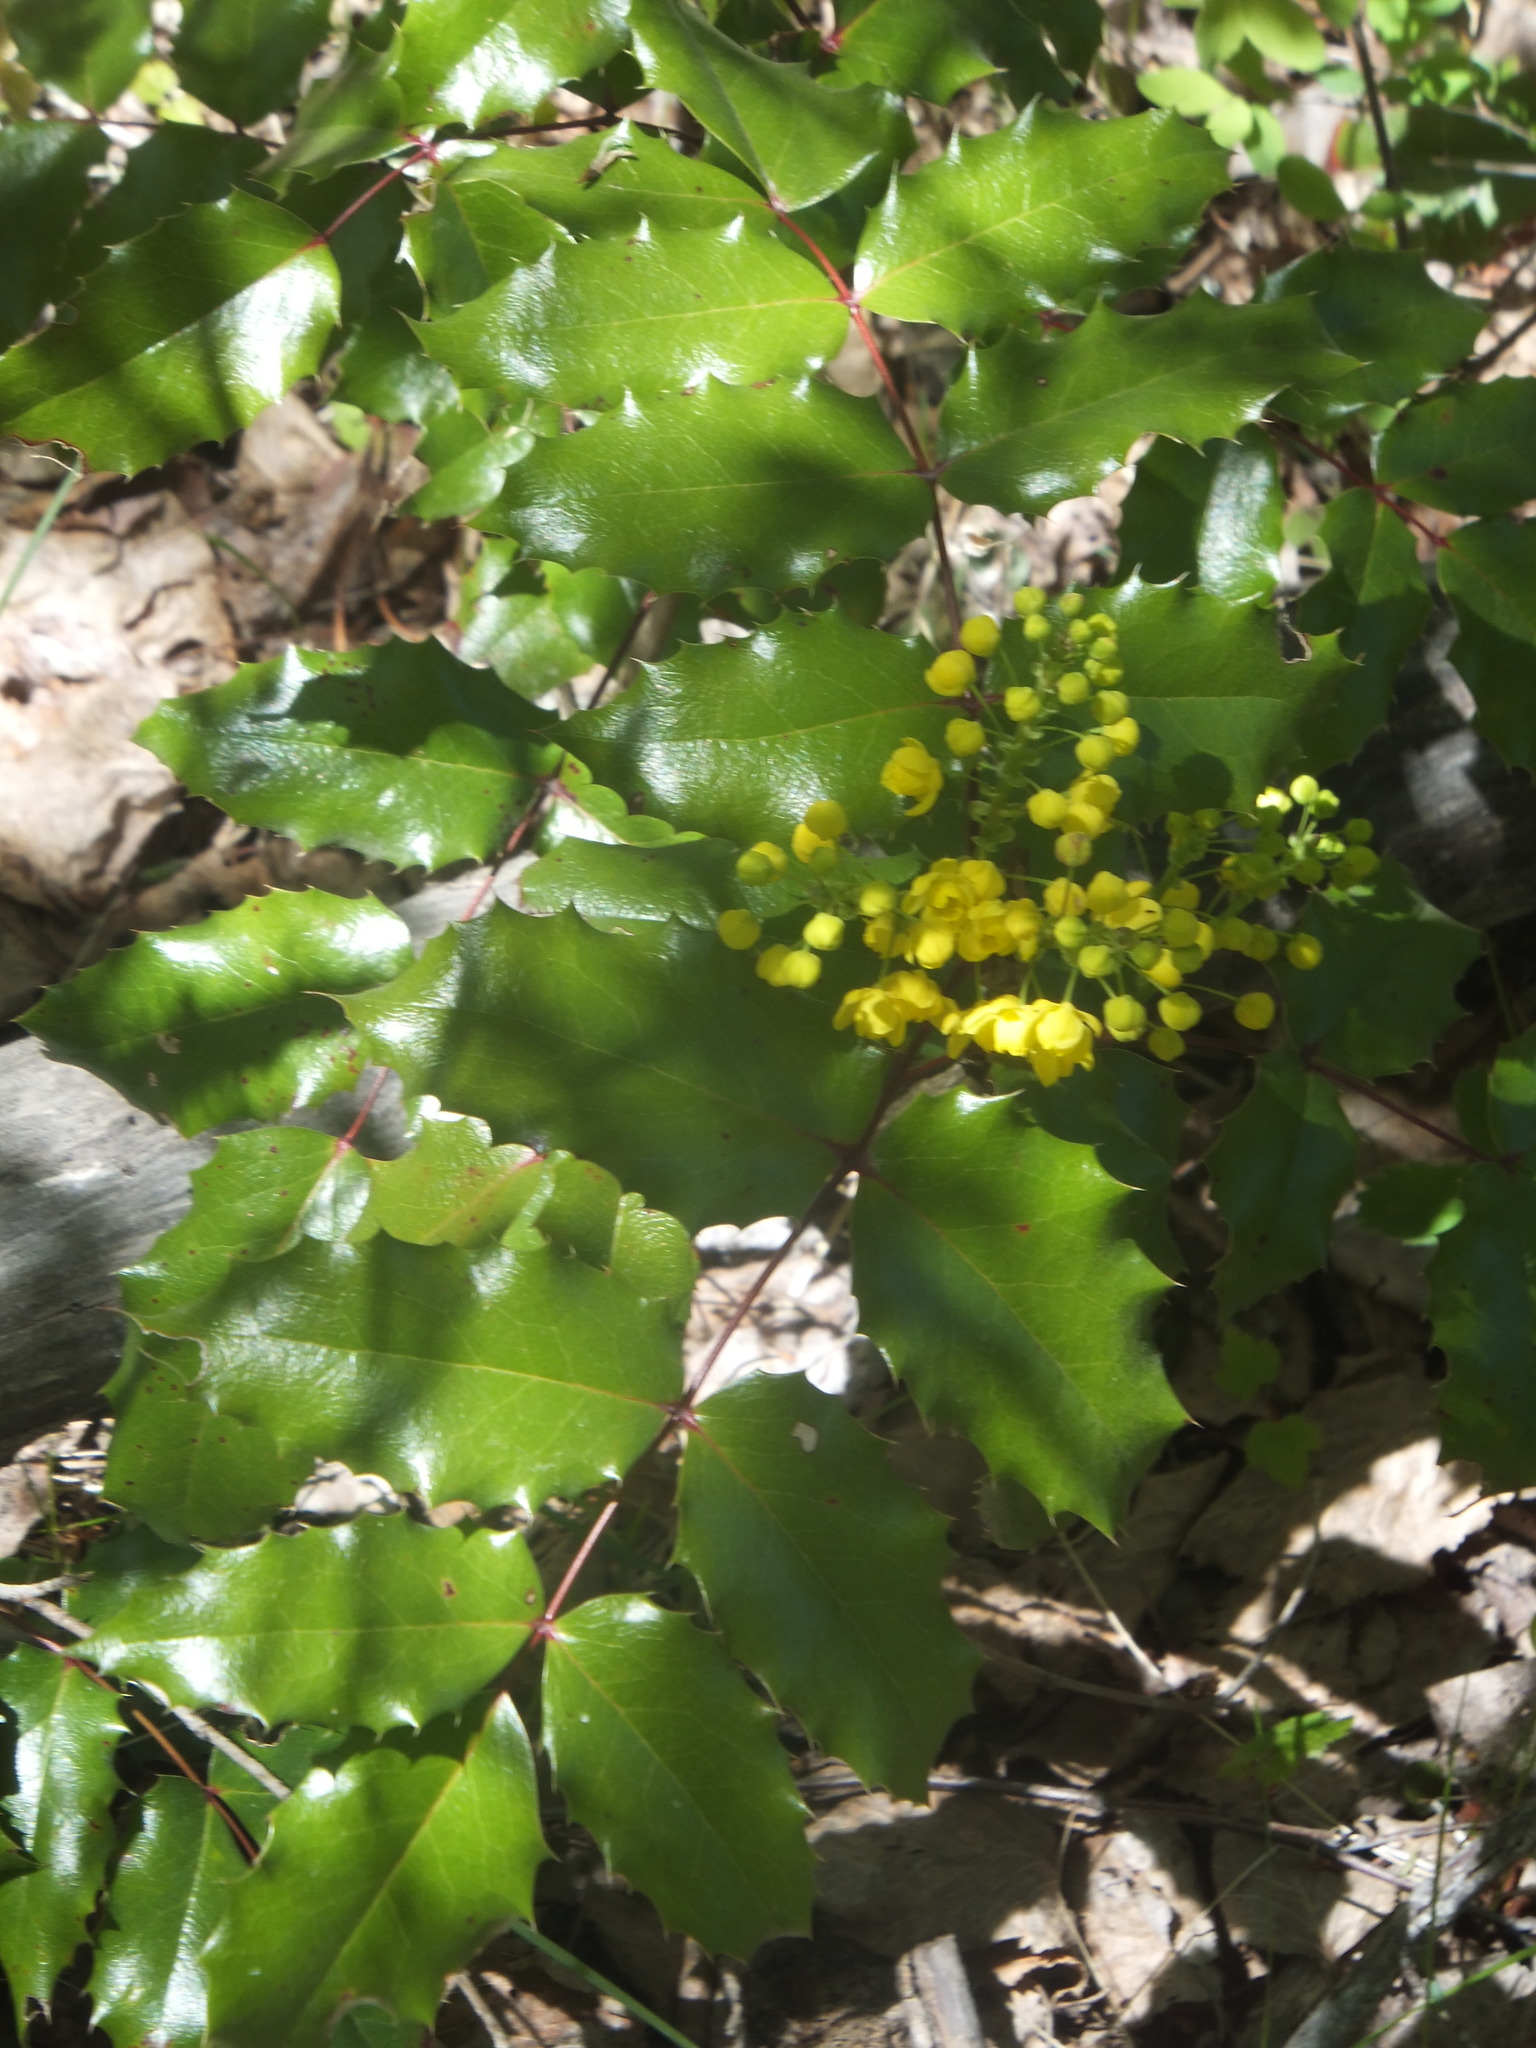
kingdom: Plantae
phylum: Tracheophyta
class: Magnoliopsida
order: Ranunculales
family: Berberidaceae
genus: Mahonia
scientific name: Mahonia aquifolium
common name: Oregon-grape
